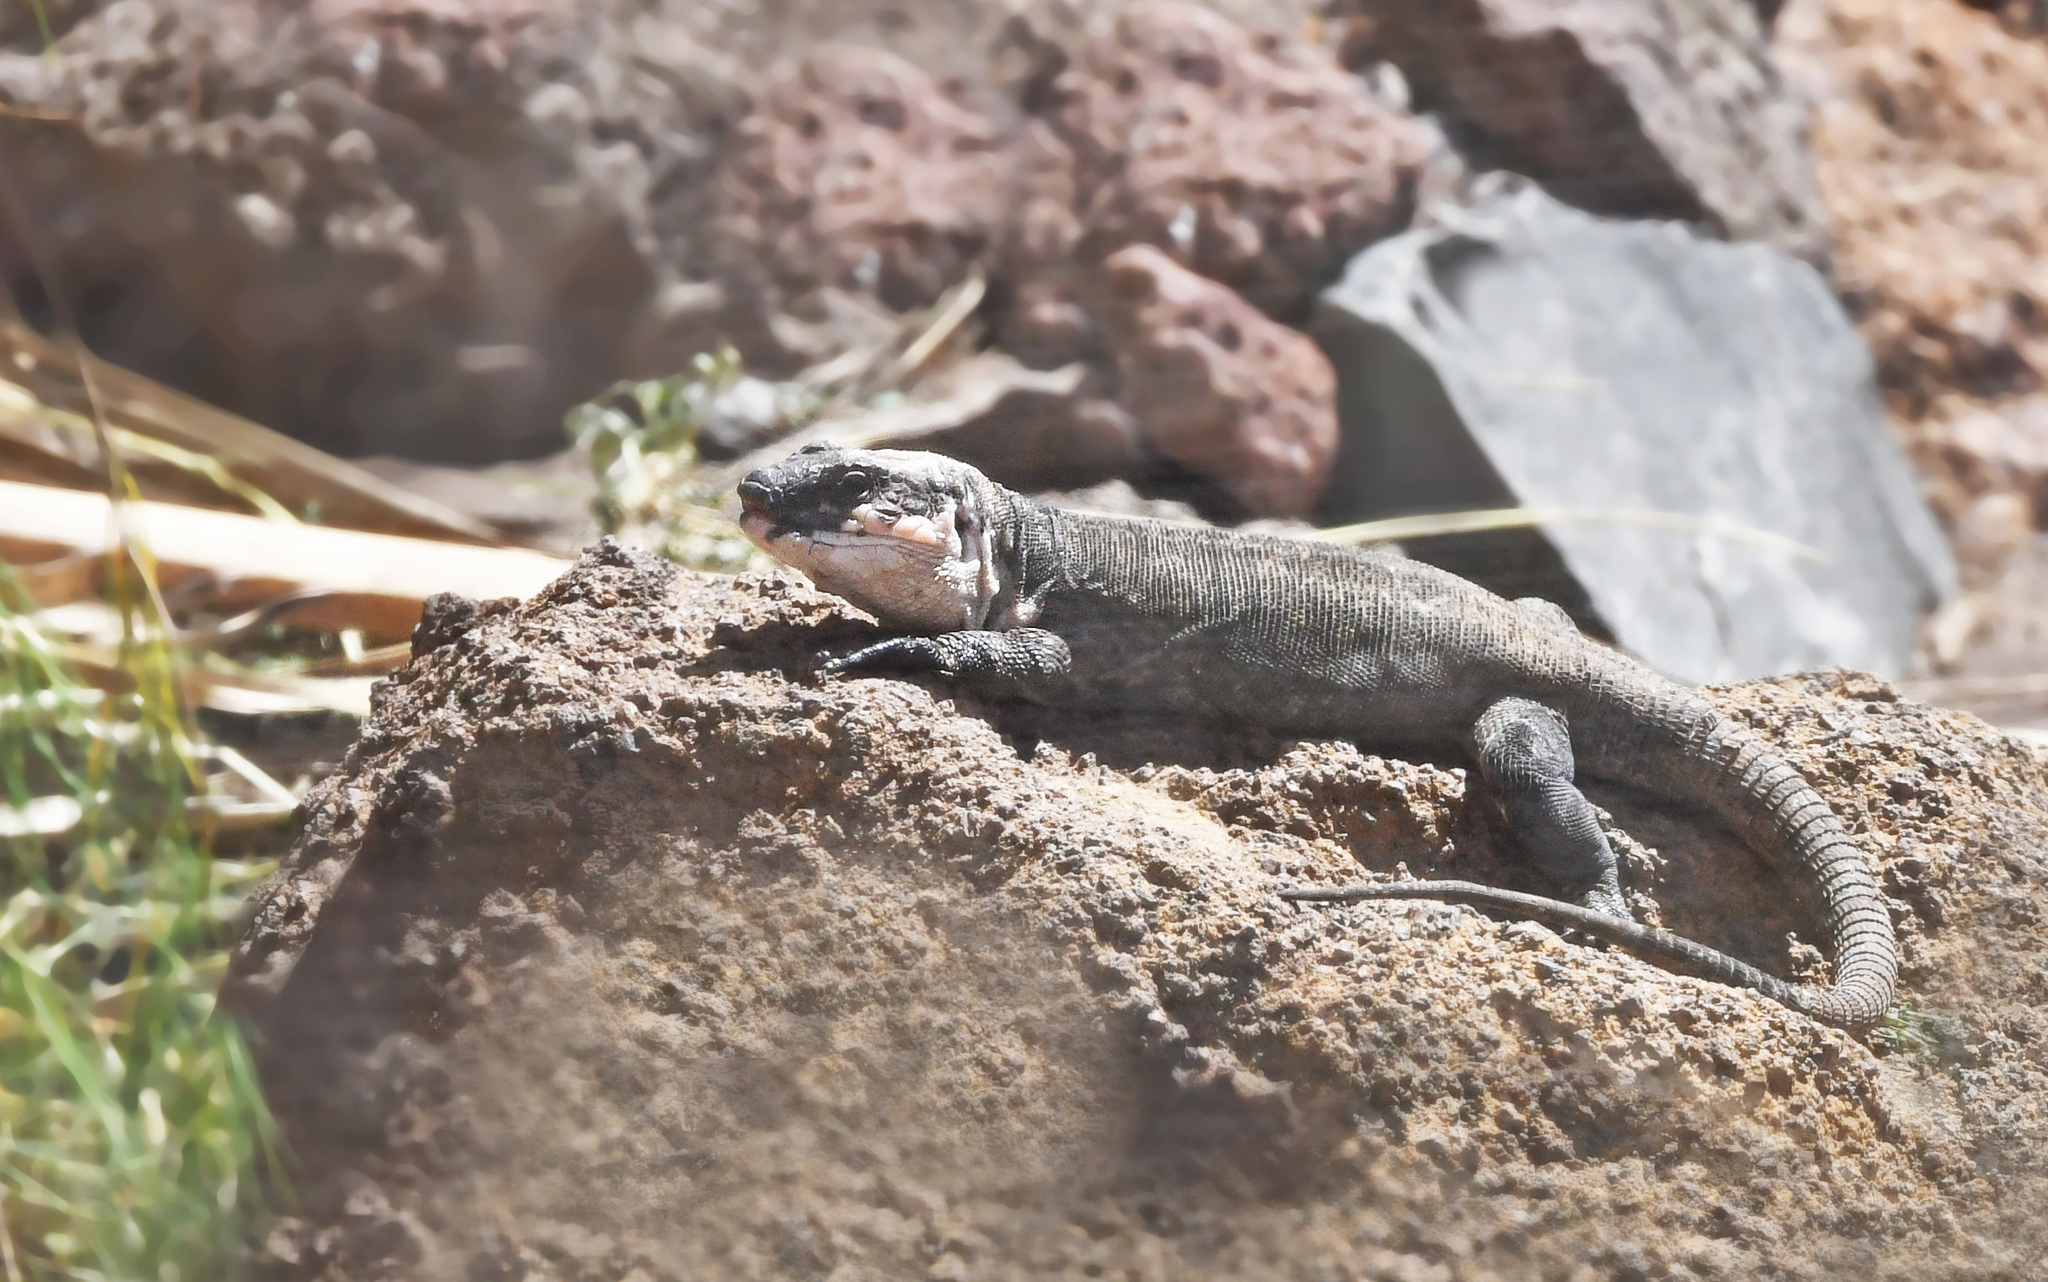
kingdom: Animalia
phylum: Chordata
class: Squamata
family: Lacertidae
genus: Gallotia
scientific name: Gallotia bravoana
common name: La gomera giant lizard
